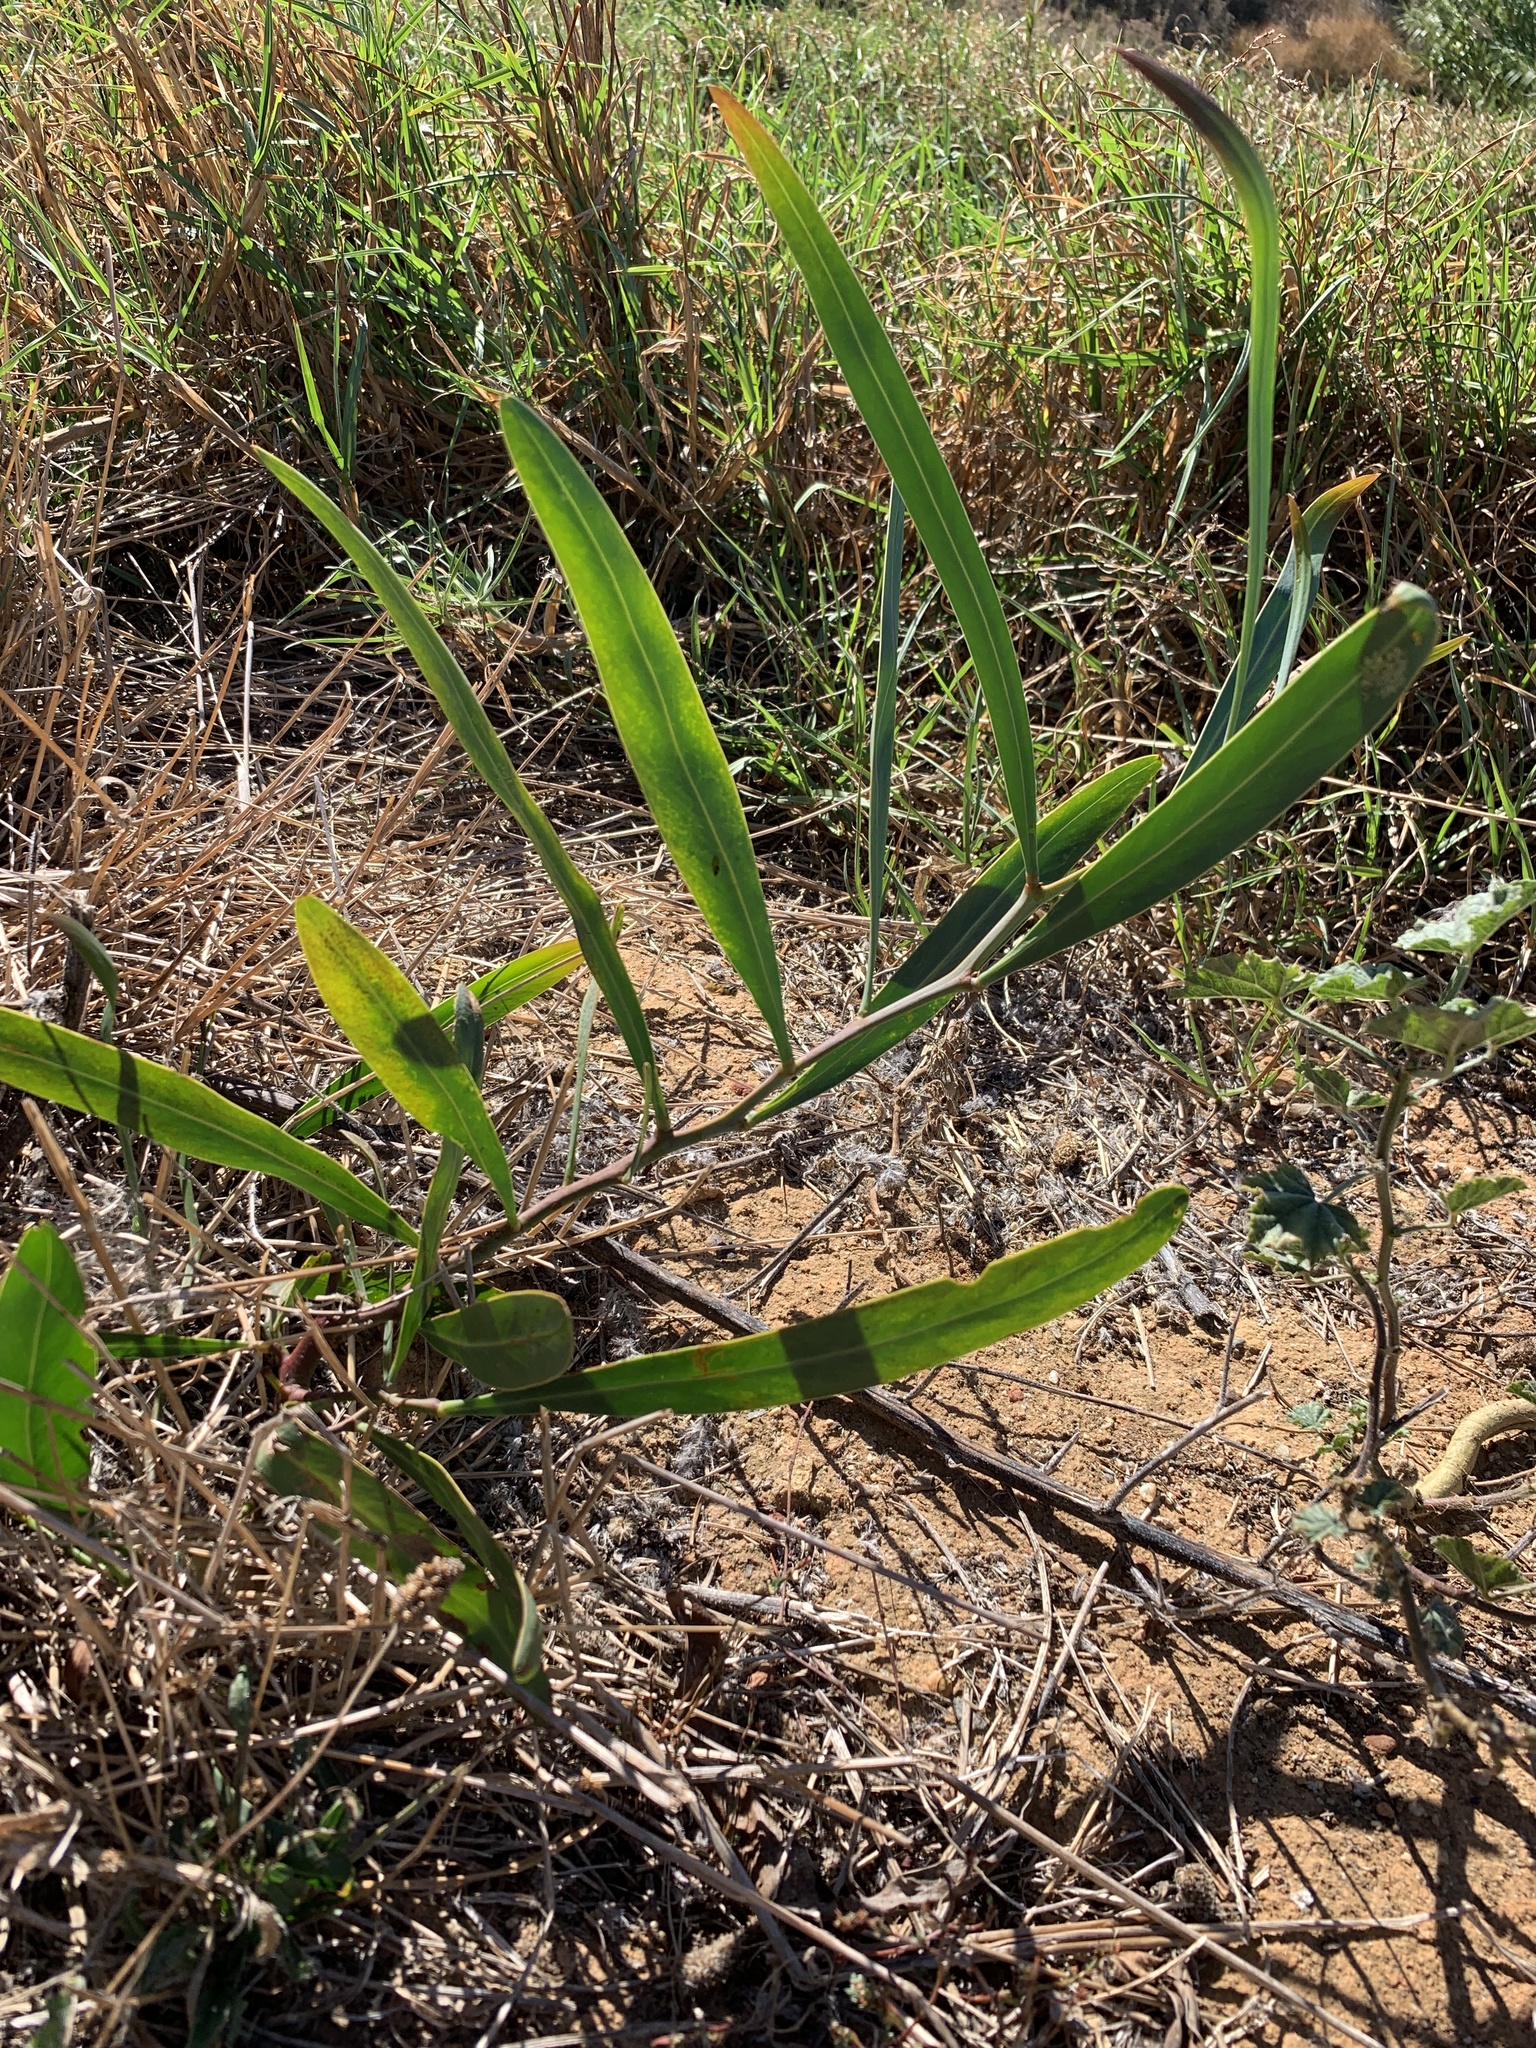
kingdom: Plantae
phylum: Tracheophyta
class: Magnoliopsida
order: Fabales
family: Fabaceae
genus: Acacia
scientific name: Acacia saligna
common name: Orange wattle
